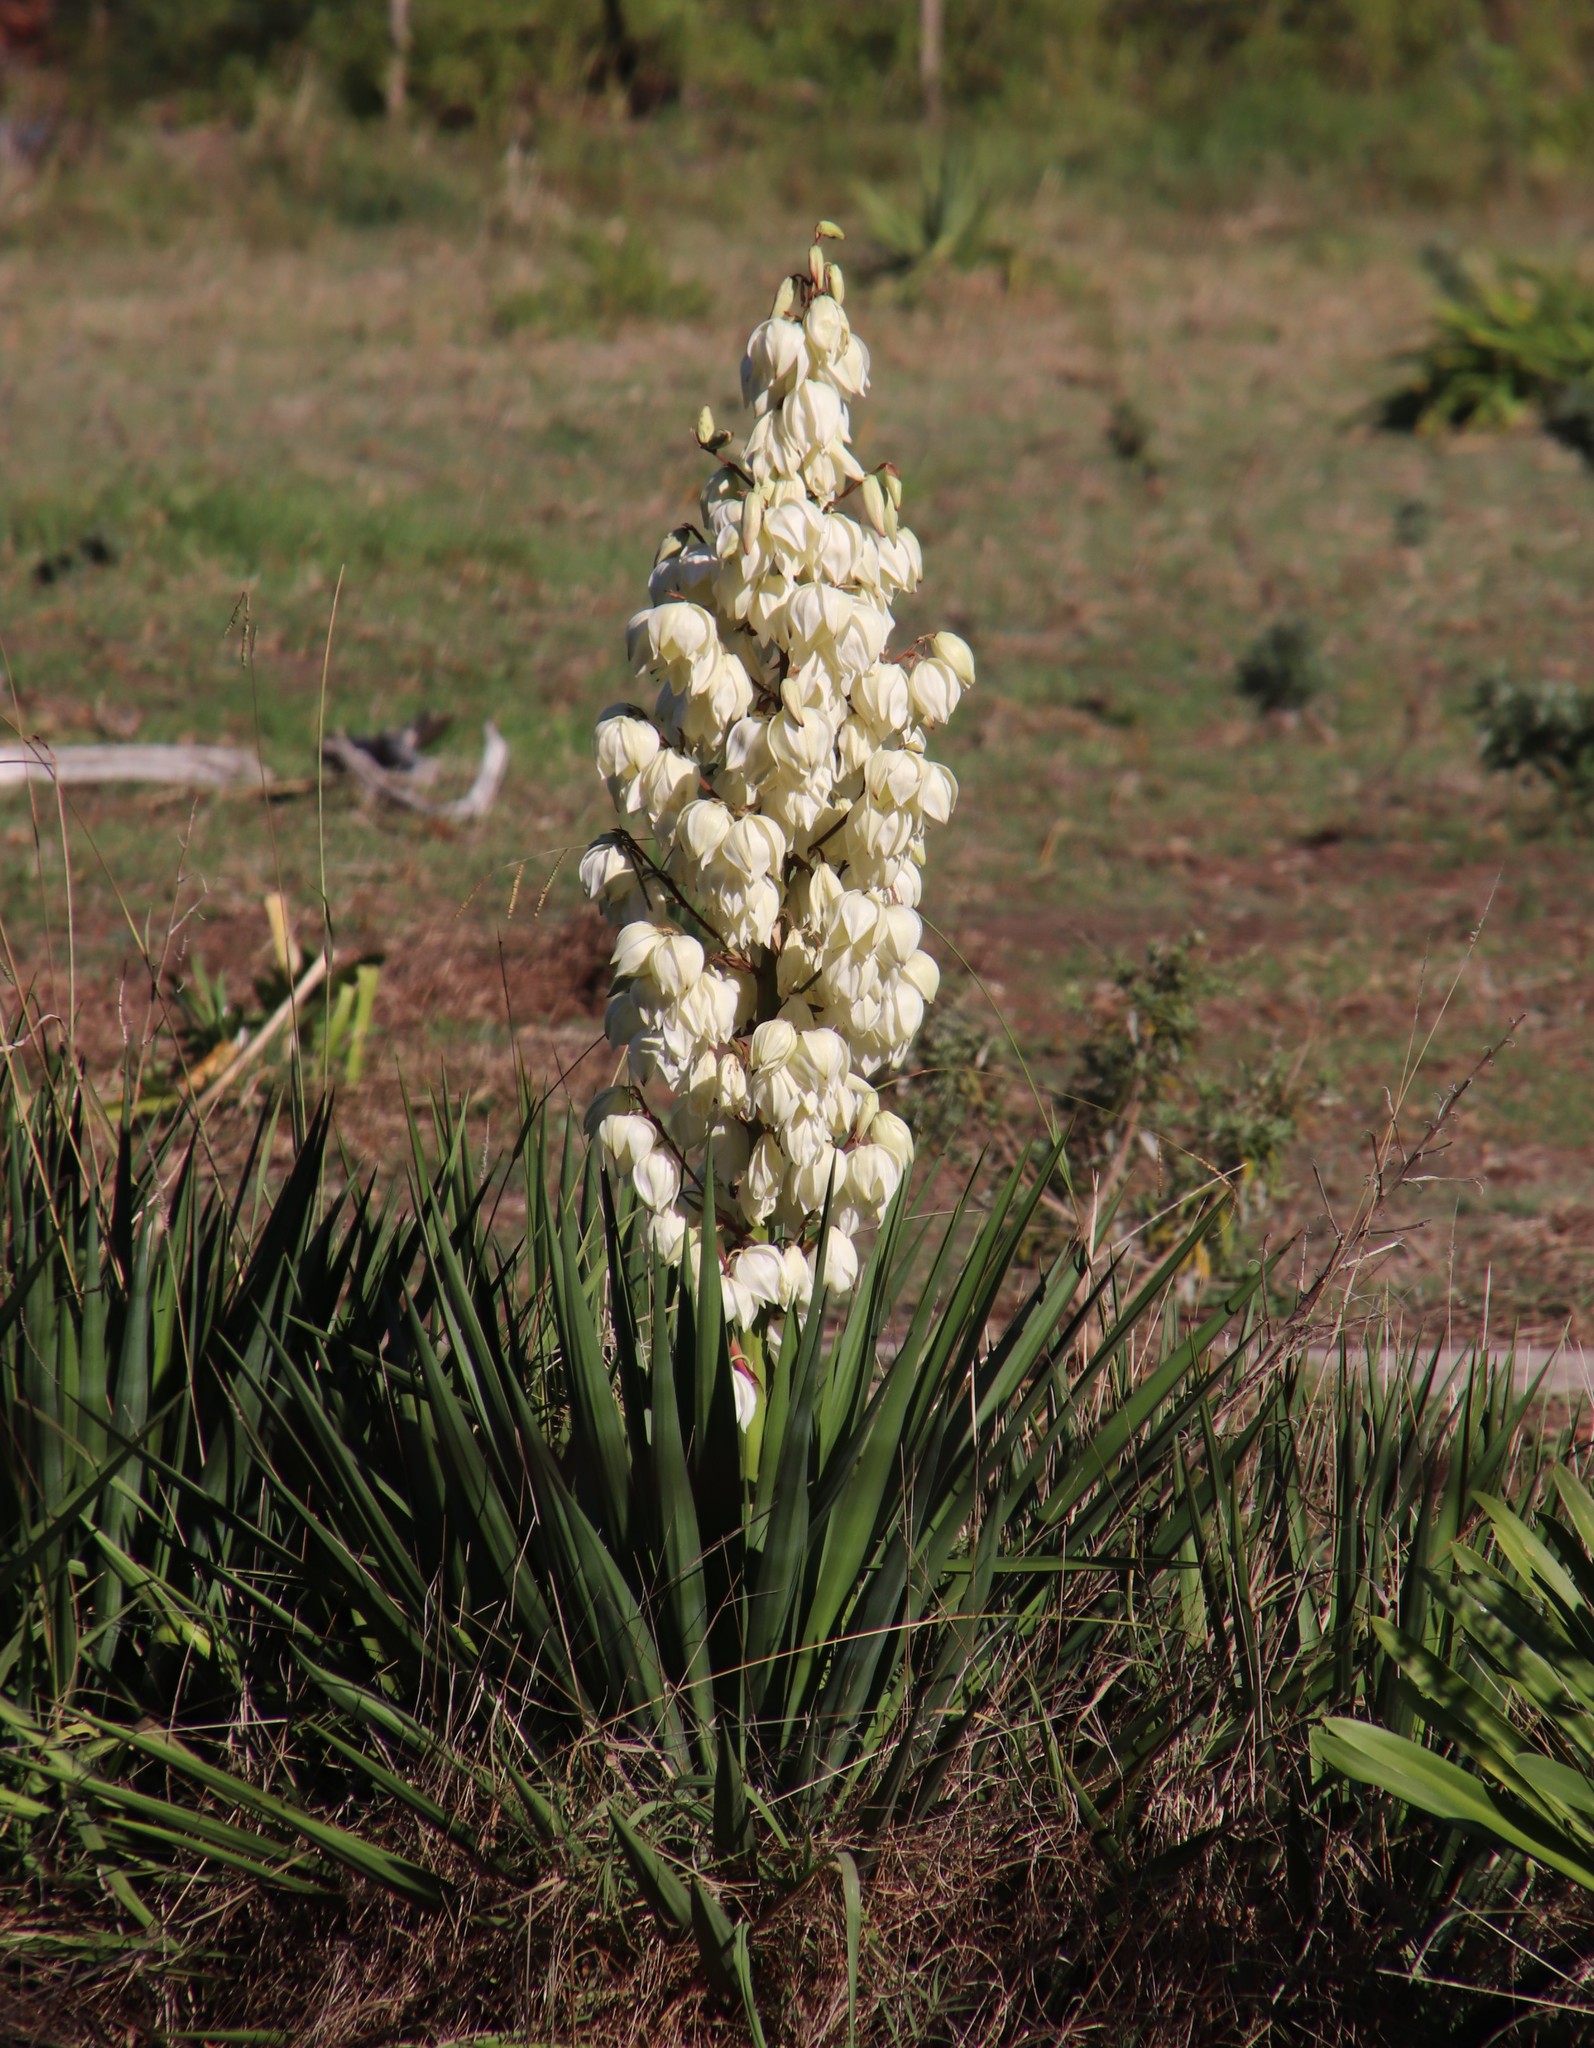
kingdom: Plantae
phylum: Tracheophyta
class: Liliopsida
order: Asparagales
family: Asparagaceae
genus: Yucca
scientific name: Yucca gloriosa
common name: Spanish-dagger
